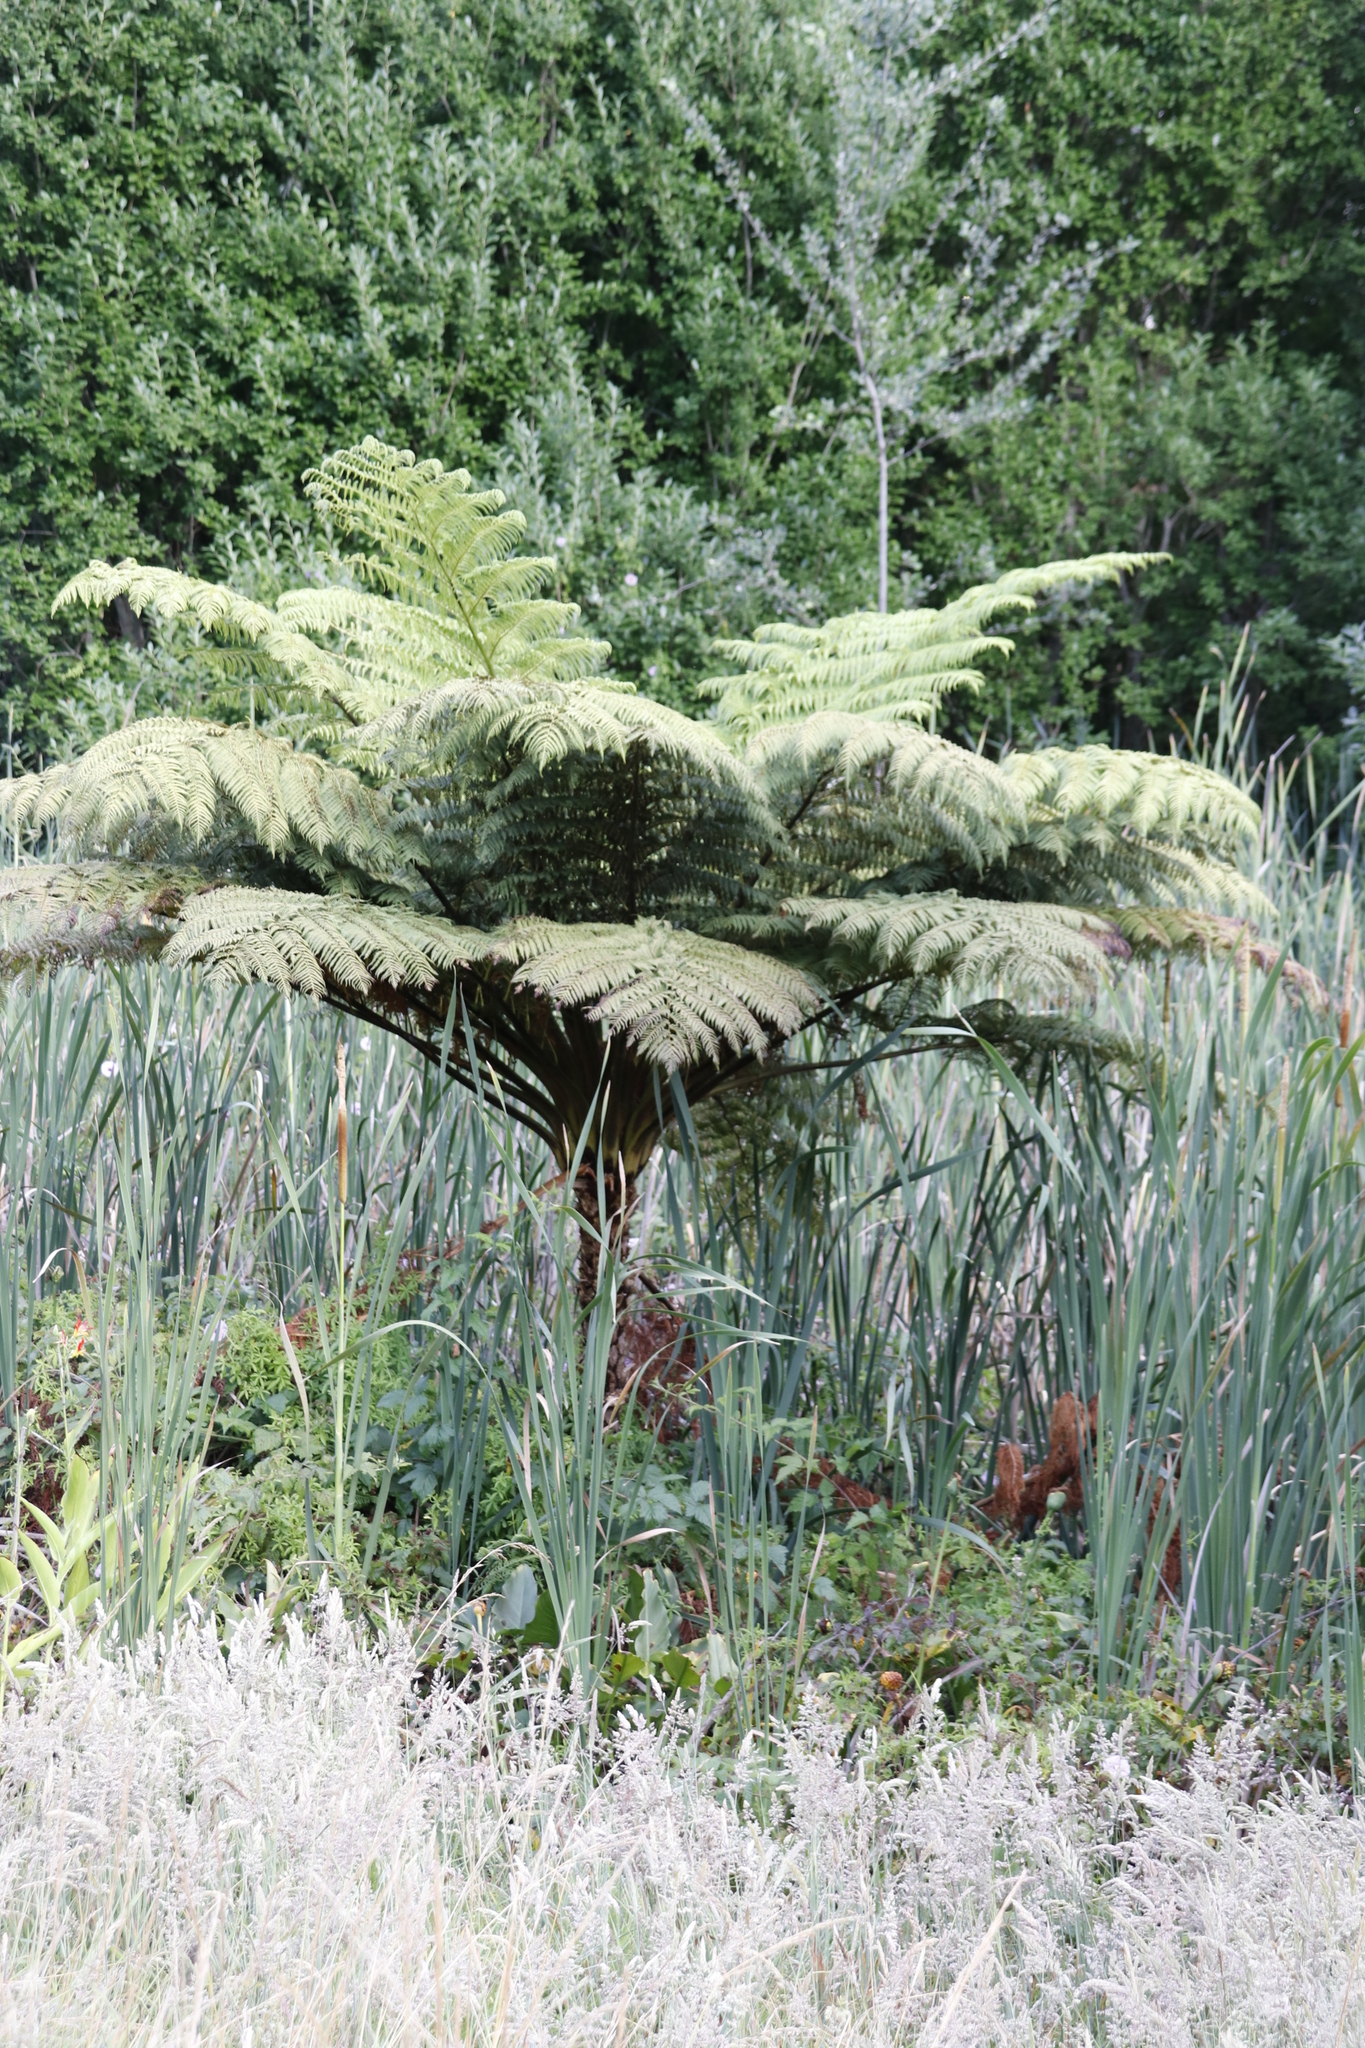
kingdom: Plantae
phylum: Tracheophyta
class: Polypodiopsida
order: Cyatheales
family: Cyatheaceae
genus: Sphaeropteris
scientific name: Sphaeropteris cooperi
